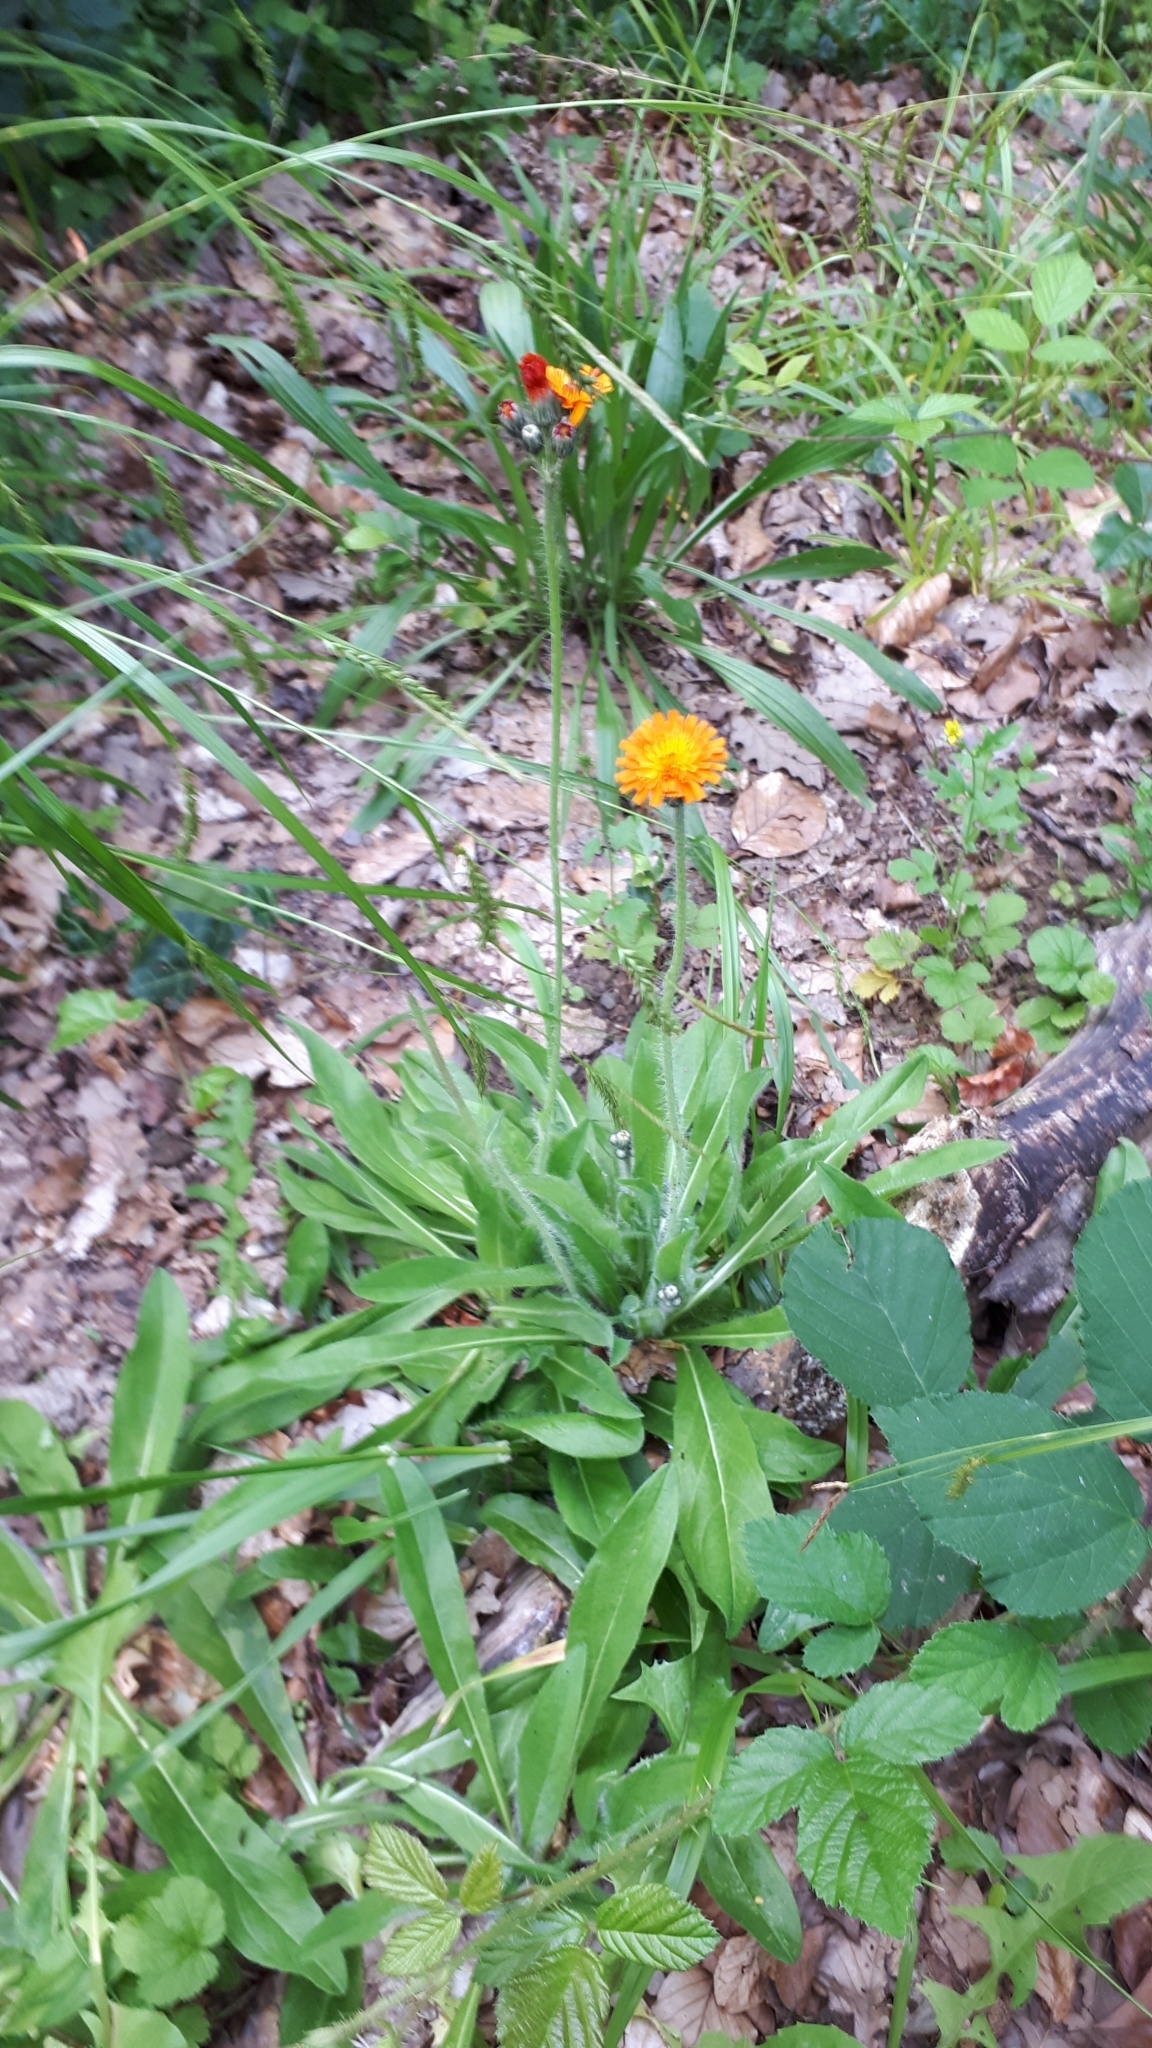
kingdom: Plantae
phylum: Tracheophyta
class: Magnoliopsida
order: Asterales
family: Asteraceae
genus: Pilosella
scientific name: Pilosella aurantiaca
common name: Fox-and-cubs
